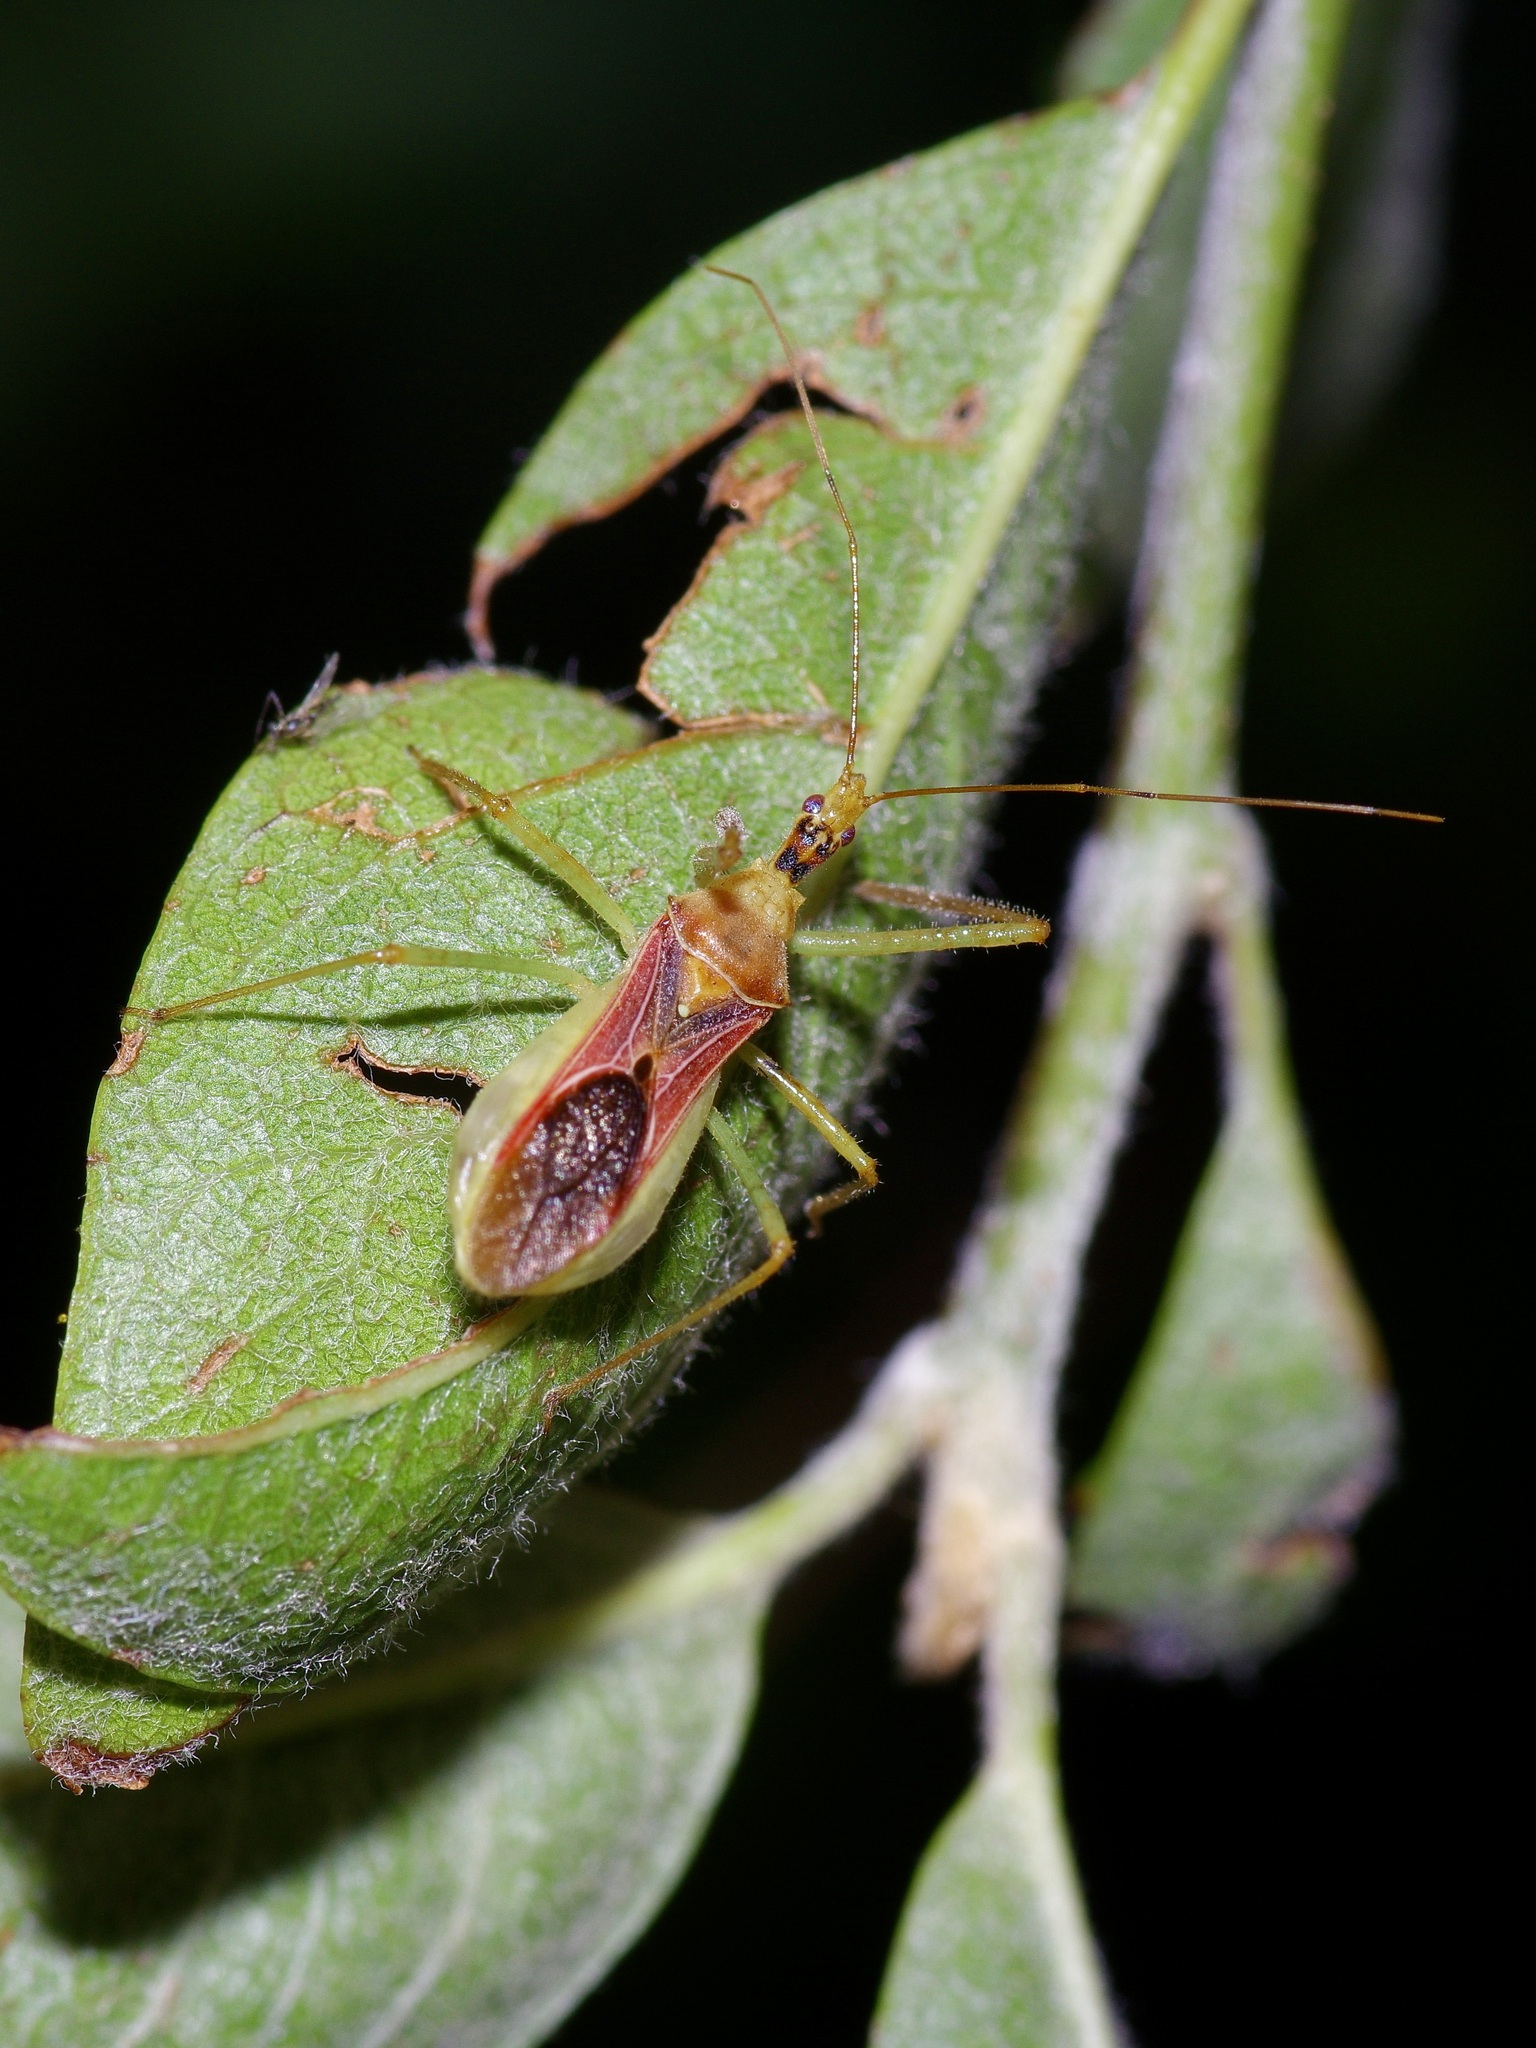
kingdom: Animalia
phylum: Arthropoda
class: Insecta
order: Hemiptera
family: Reduviidae
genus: Zelus
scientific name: Zelus renardii
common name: Assassin bug
